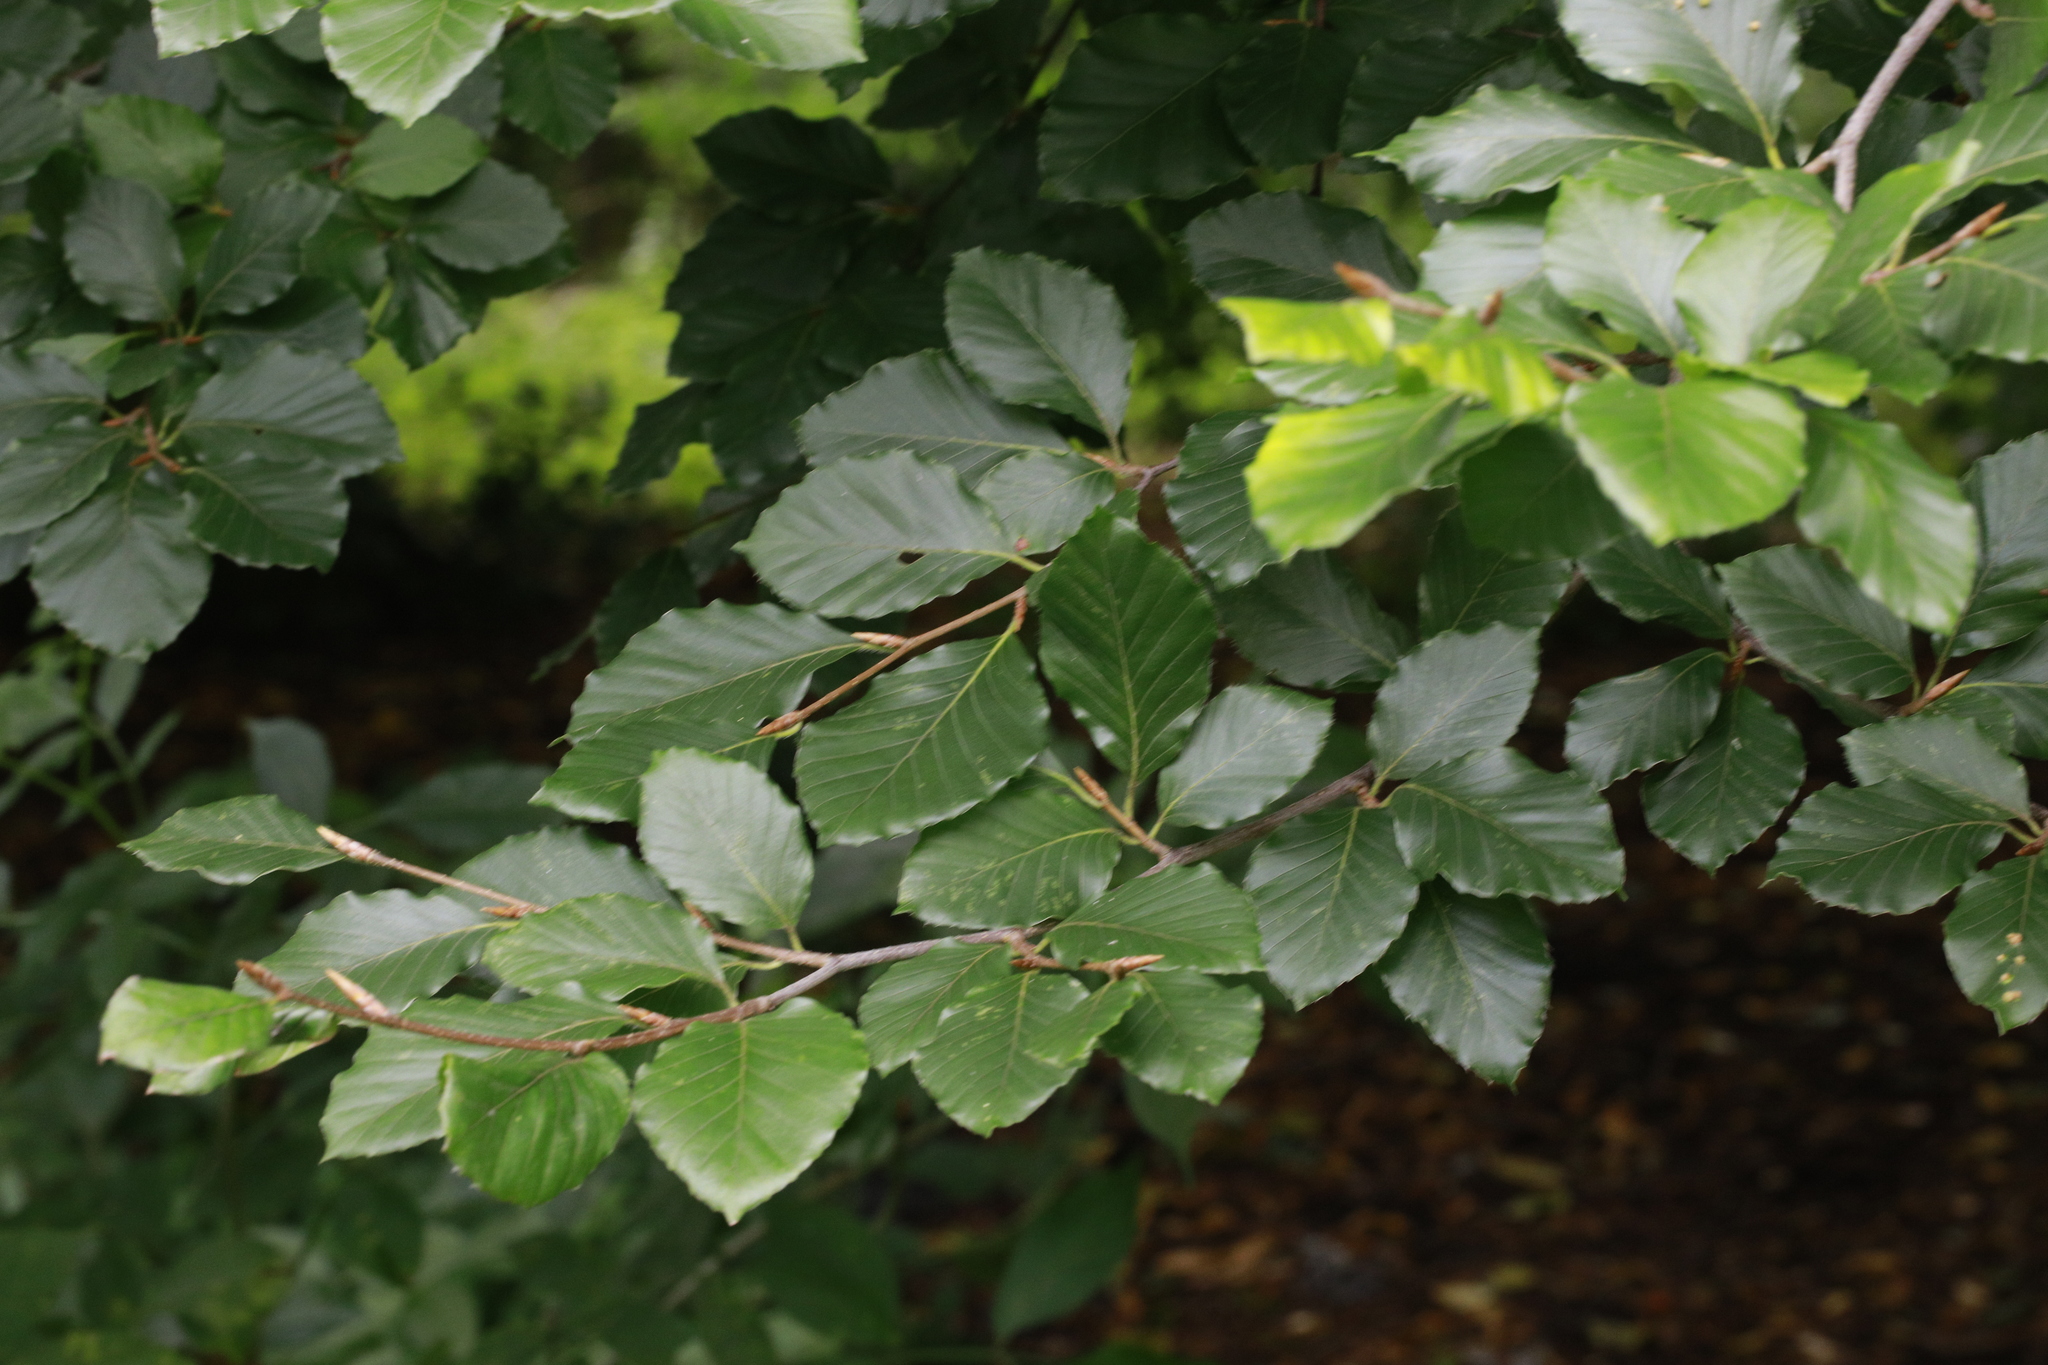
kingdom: Plantae
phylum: Tracheophyta
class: Magnoliopsida
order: Fagales
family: Fagaceae
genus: Fagus
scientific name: Fagus sylvatica
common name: Beech
